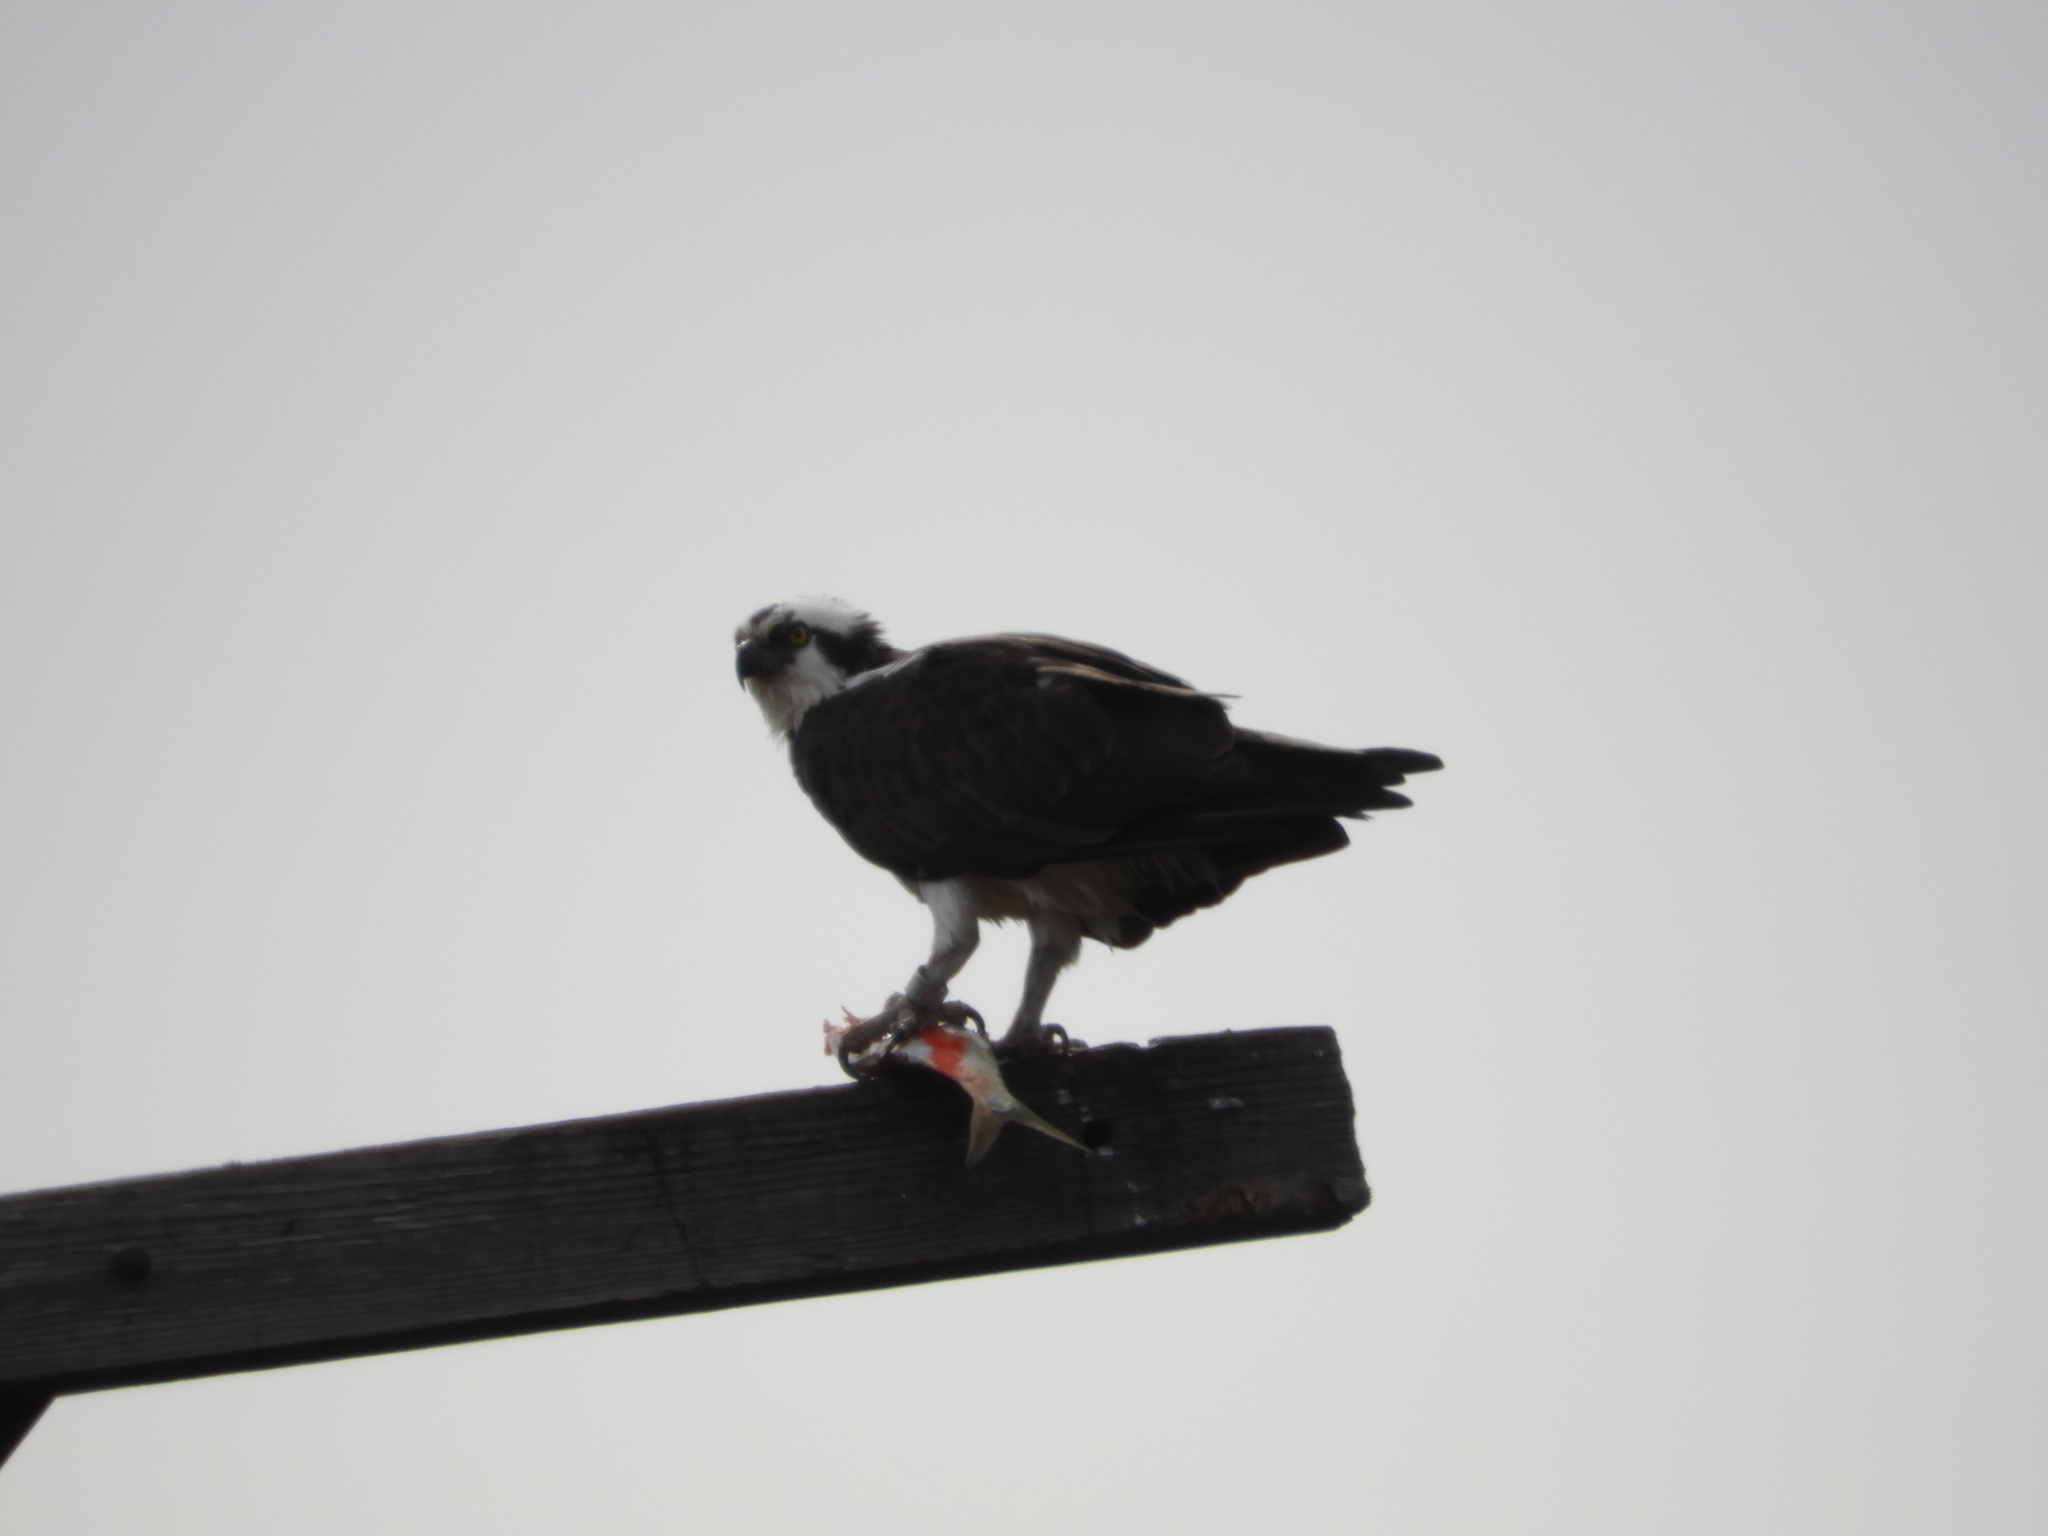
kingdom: Animalia
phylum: Chordata
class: Aves
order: Accipitriformes
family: Pandionidae
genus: Pandion
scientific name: Pandion haliaetus
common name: Osprey
